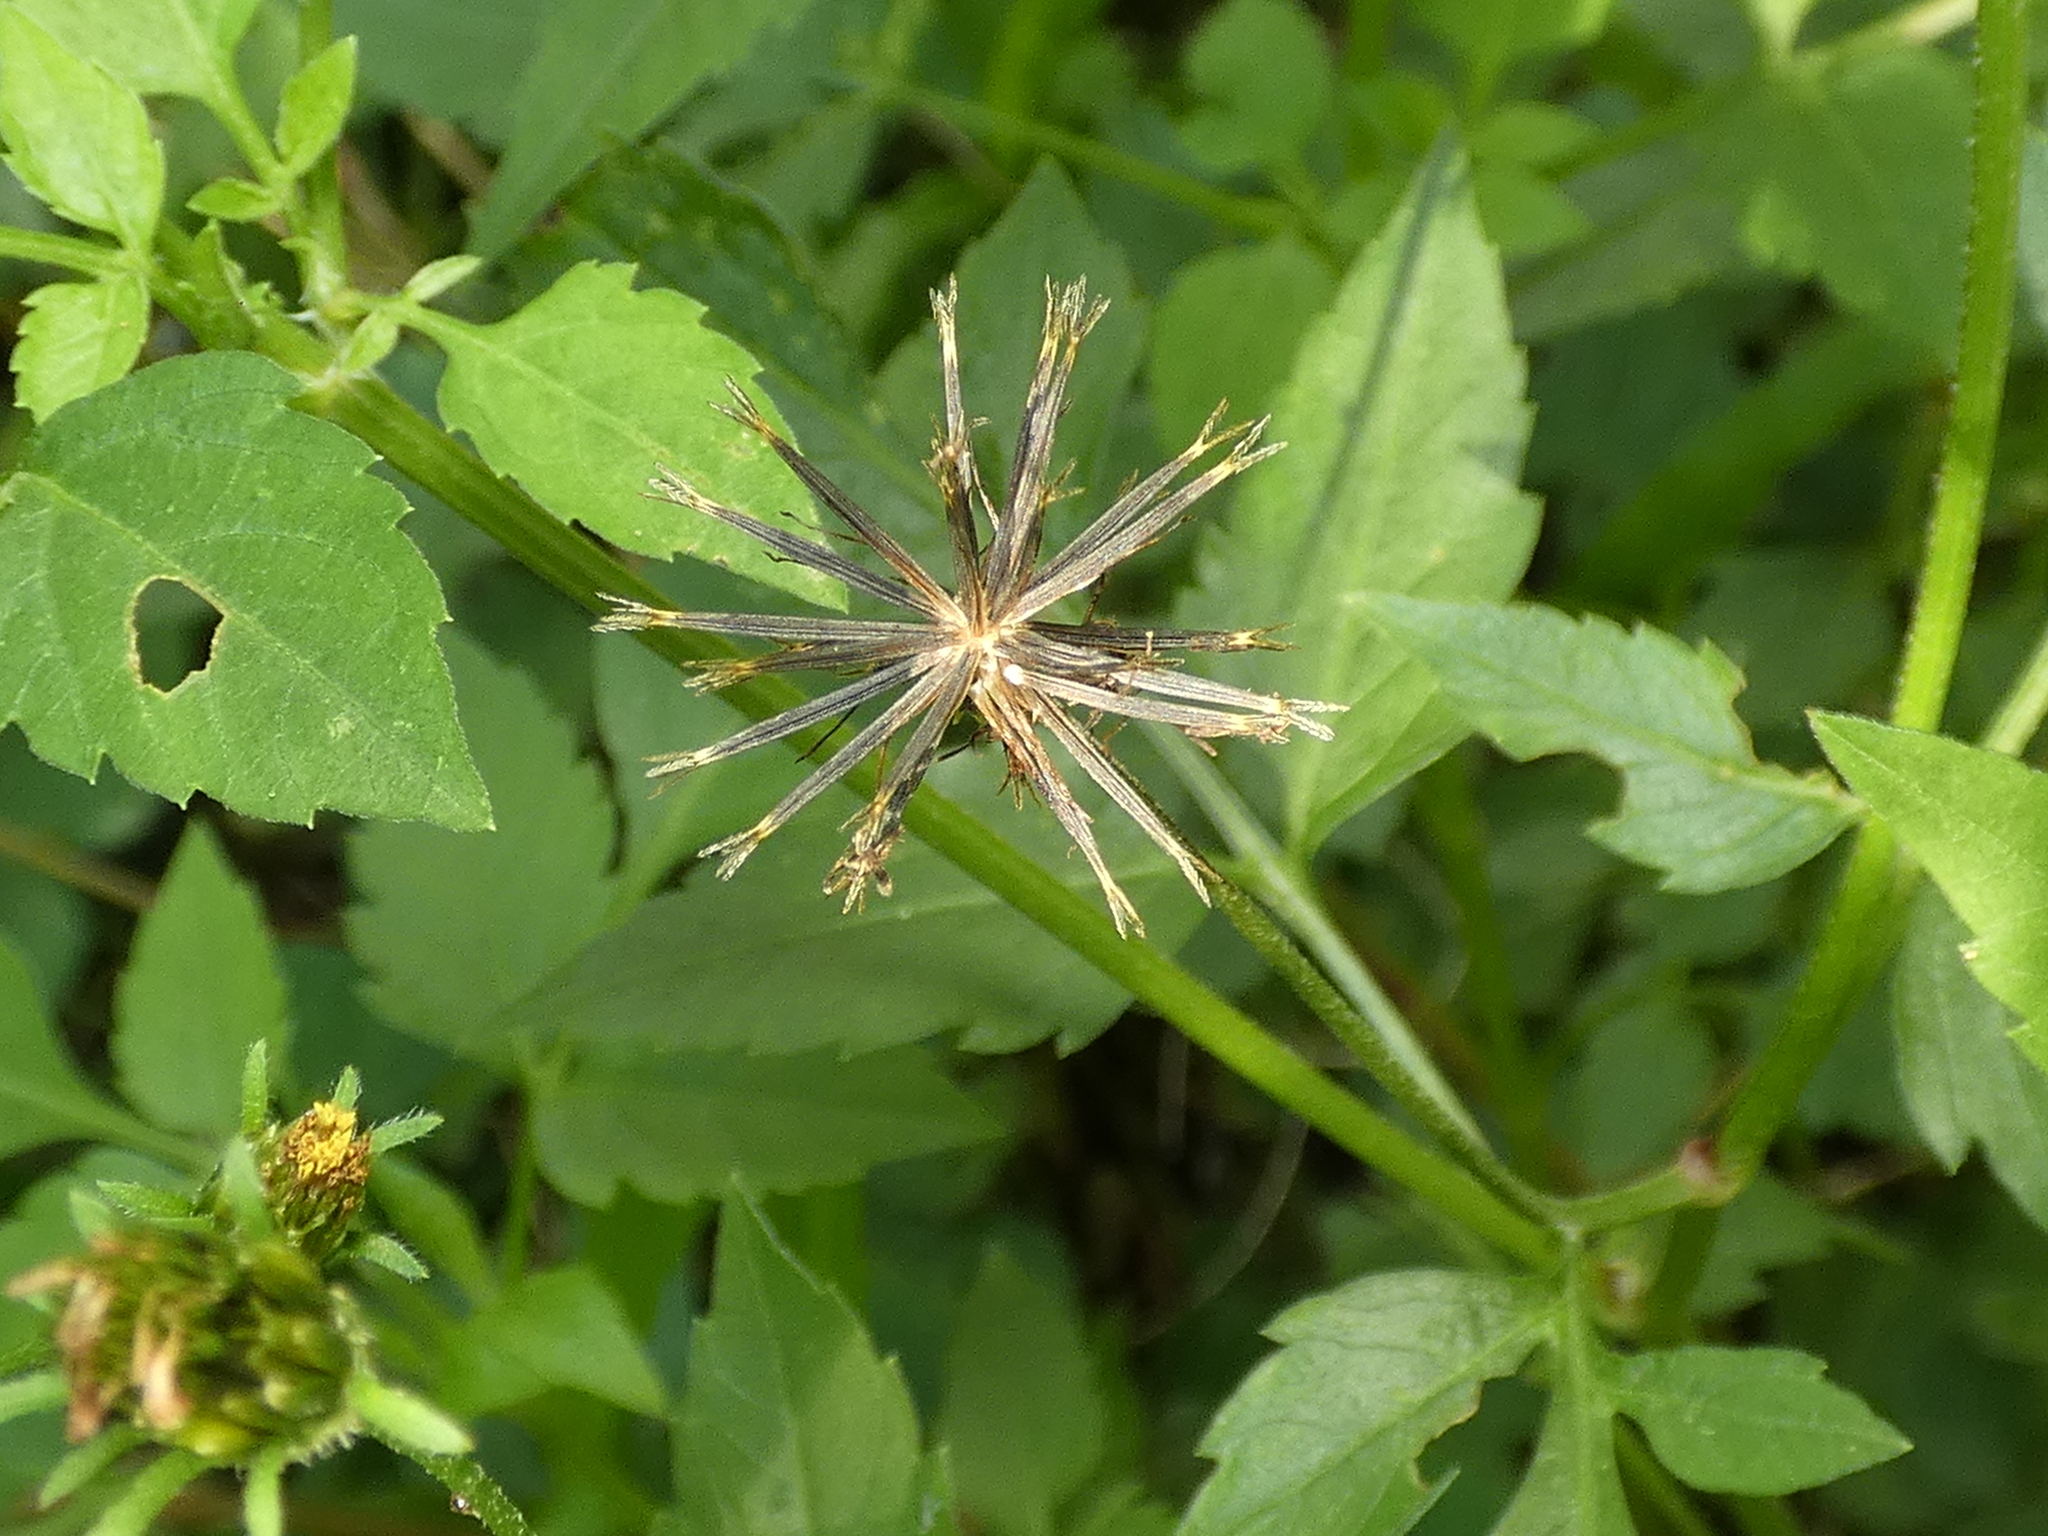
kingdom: Plantae
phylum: Tracheophyta
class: Magnoliopsida
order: Asterales
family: Asteraceae
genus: Bidens
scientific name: Bidens bipinnata
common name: Spanish-needles
